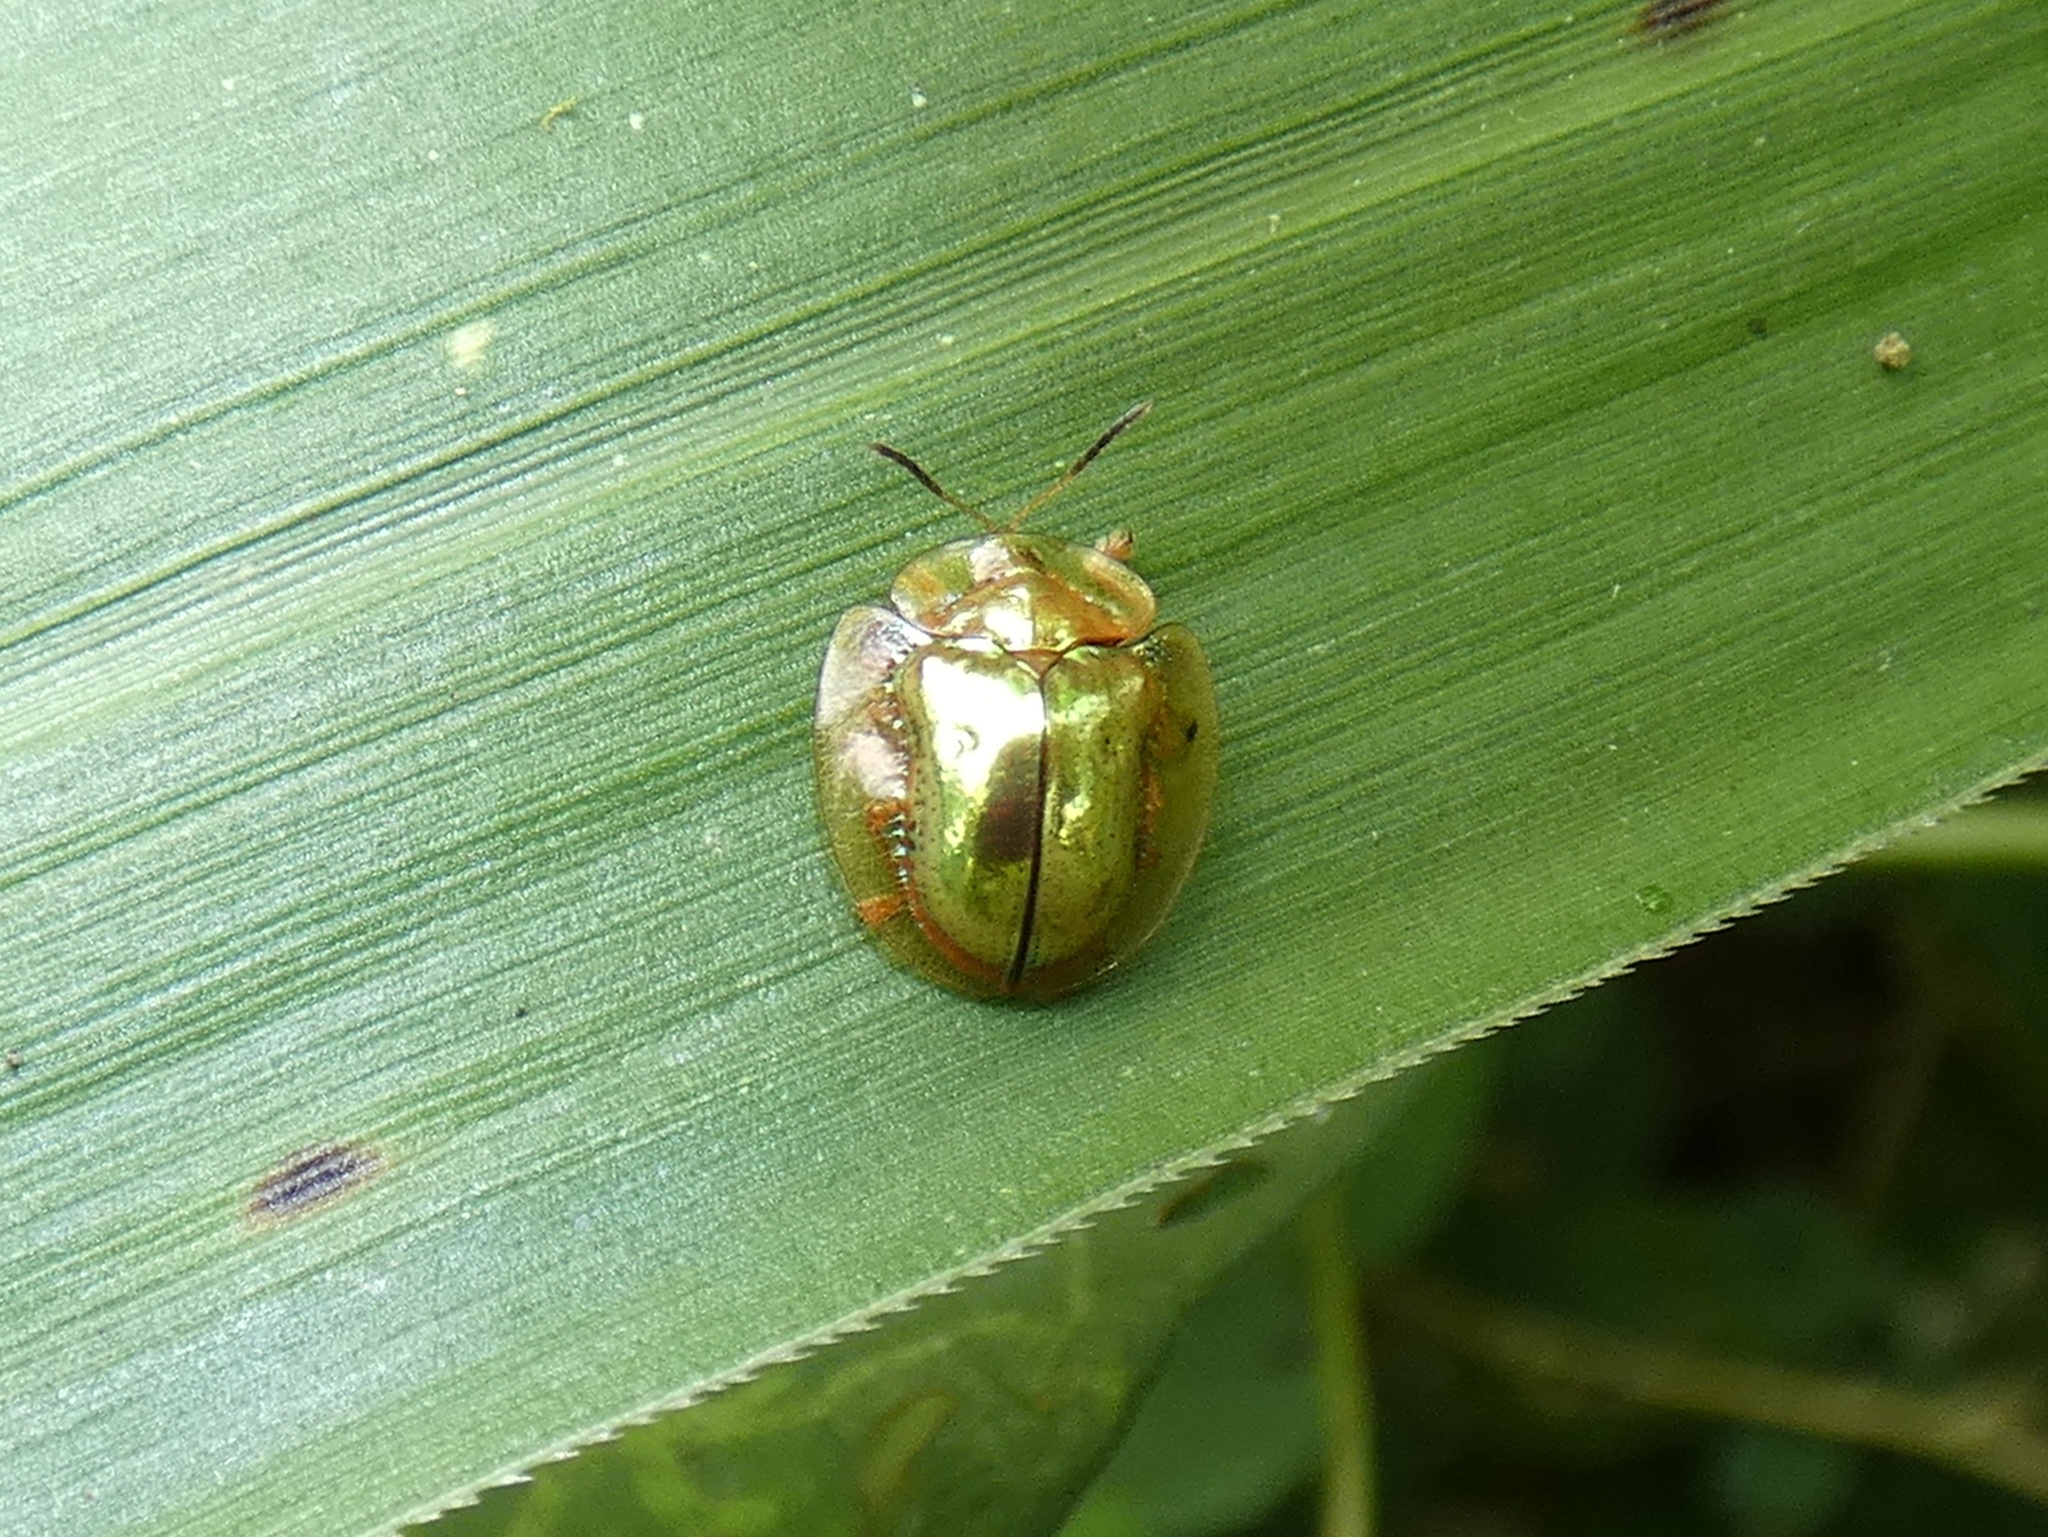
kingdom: Animalia
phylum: Arthropoda
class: Insecta
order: Coleoptera
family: Chrysomelidae
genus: Charidotella
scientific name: Charidotella sexpunctata
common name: Golden tortoise beetle
